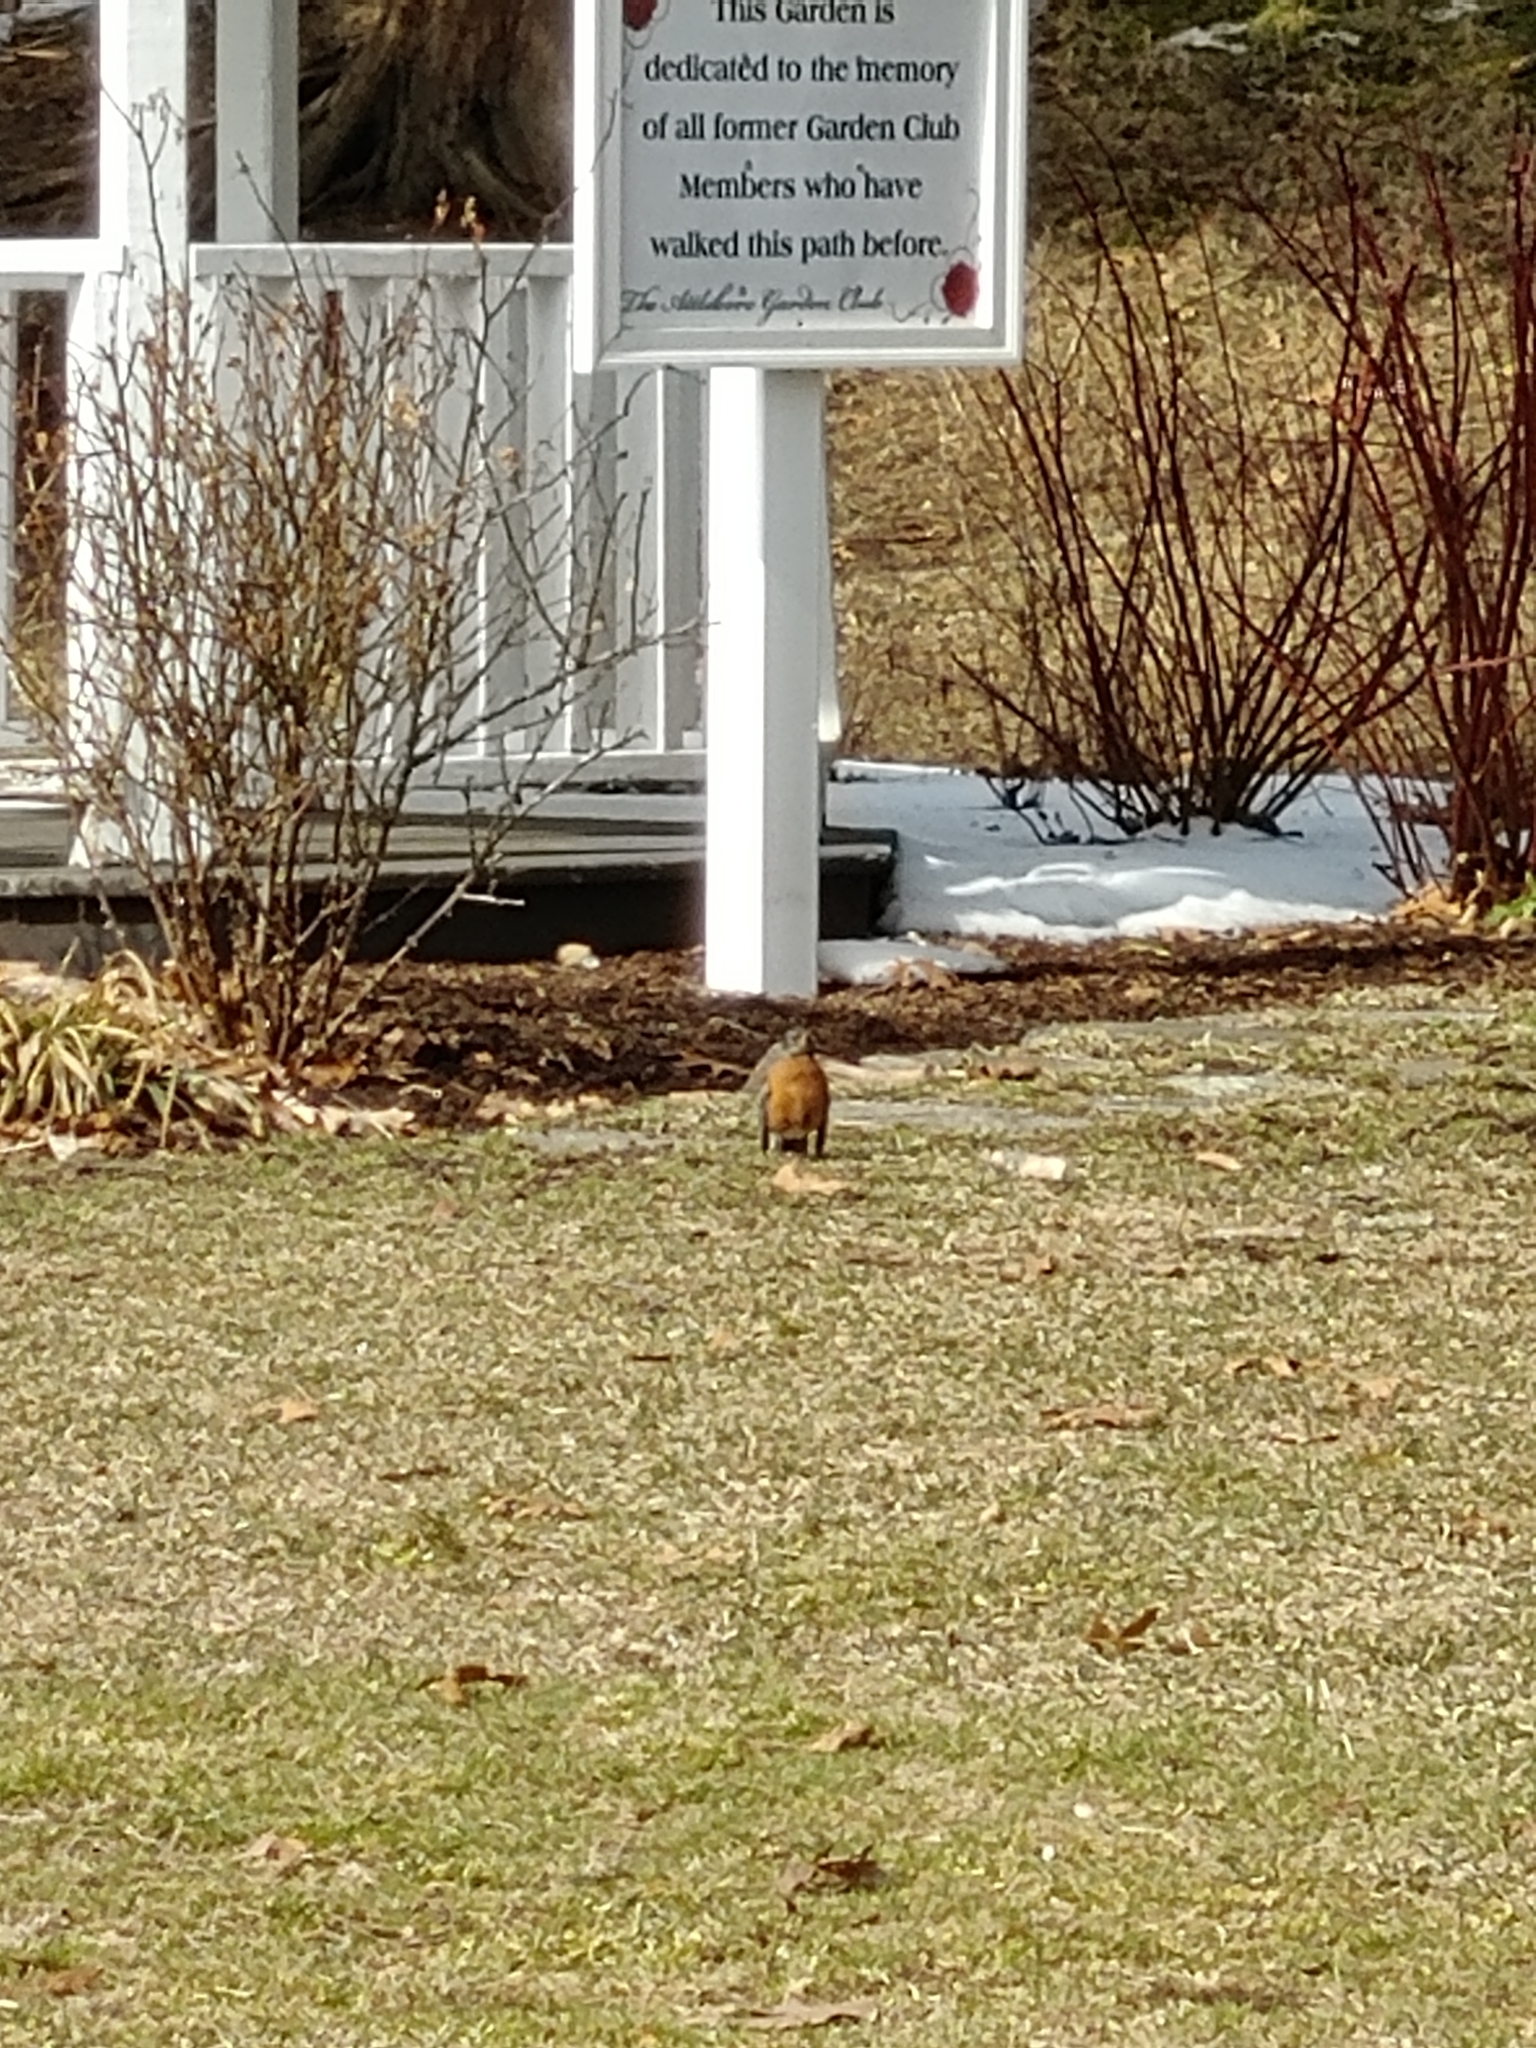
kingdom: Animalia
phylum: Chordata
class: Aves
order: Passeriformes
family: Turdidae
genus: Turdus
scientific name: Turdus migratorius
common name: American robin
